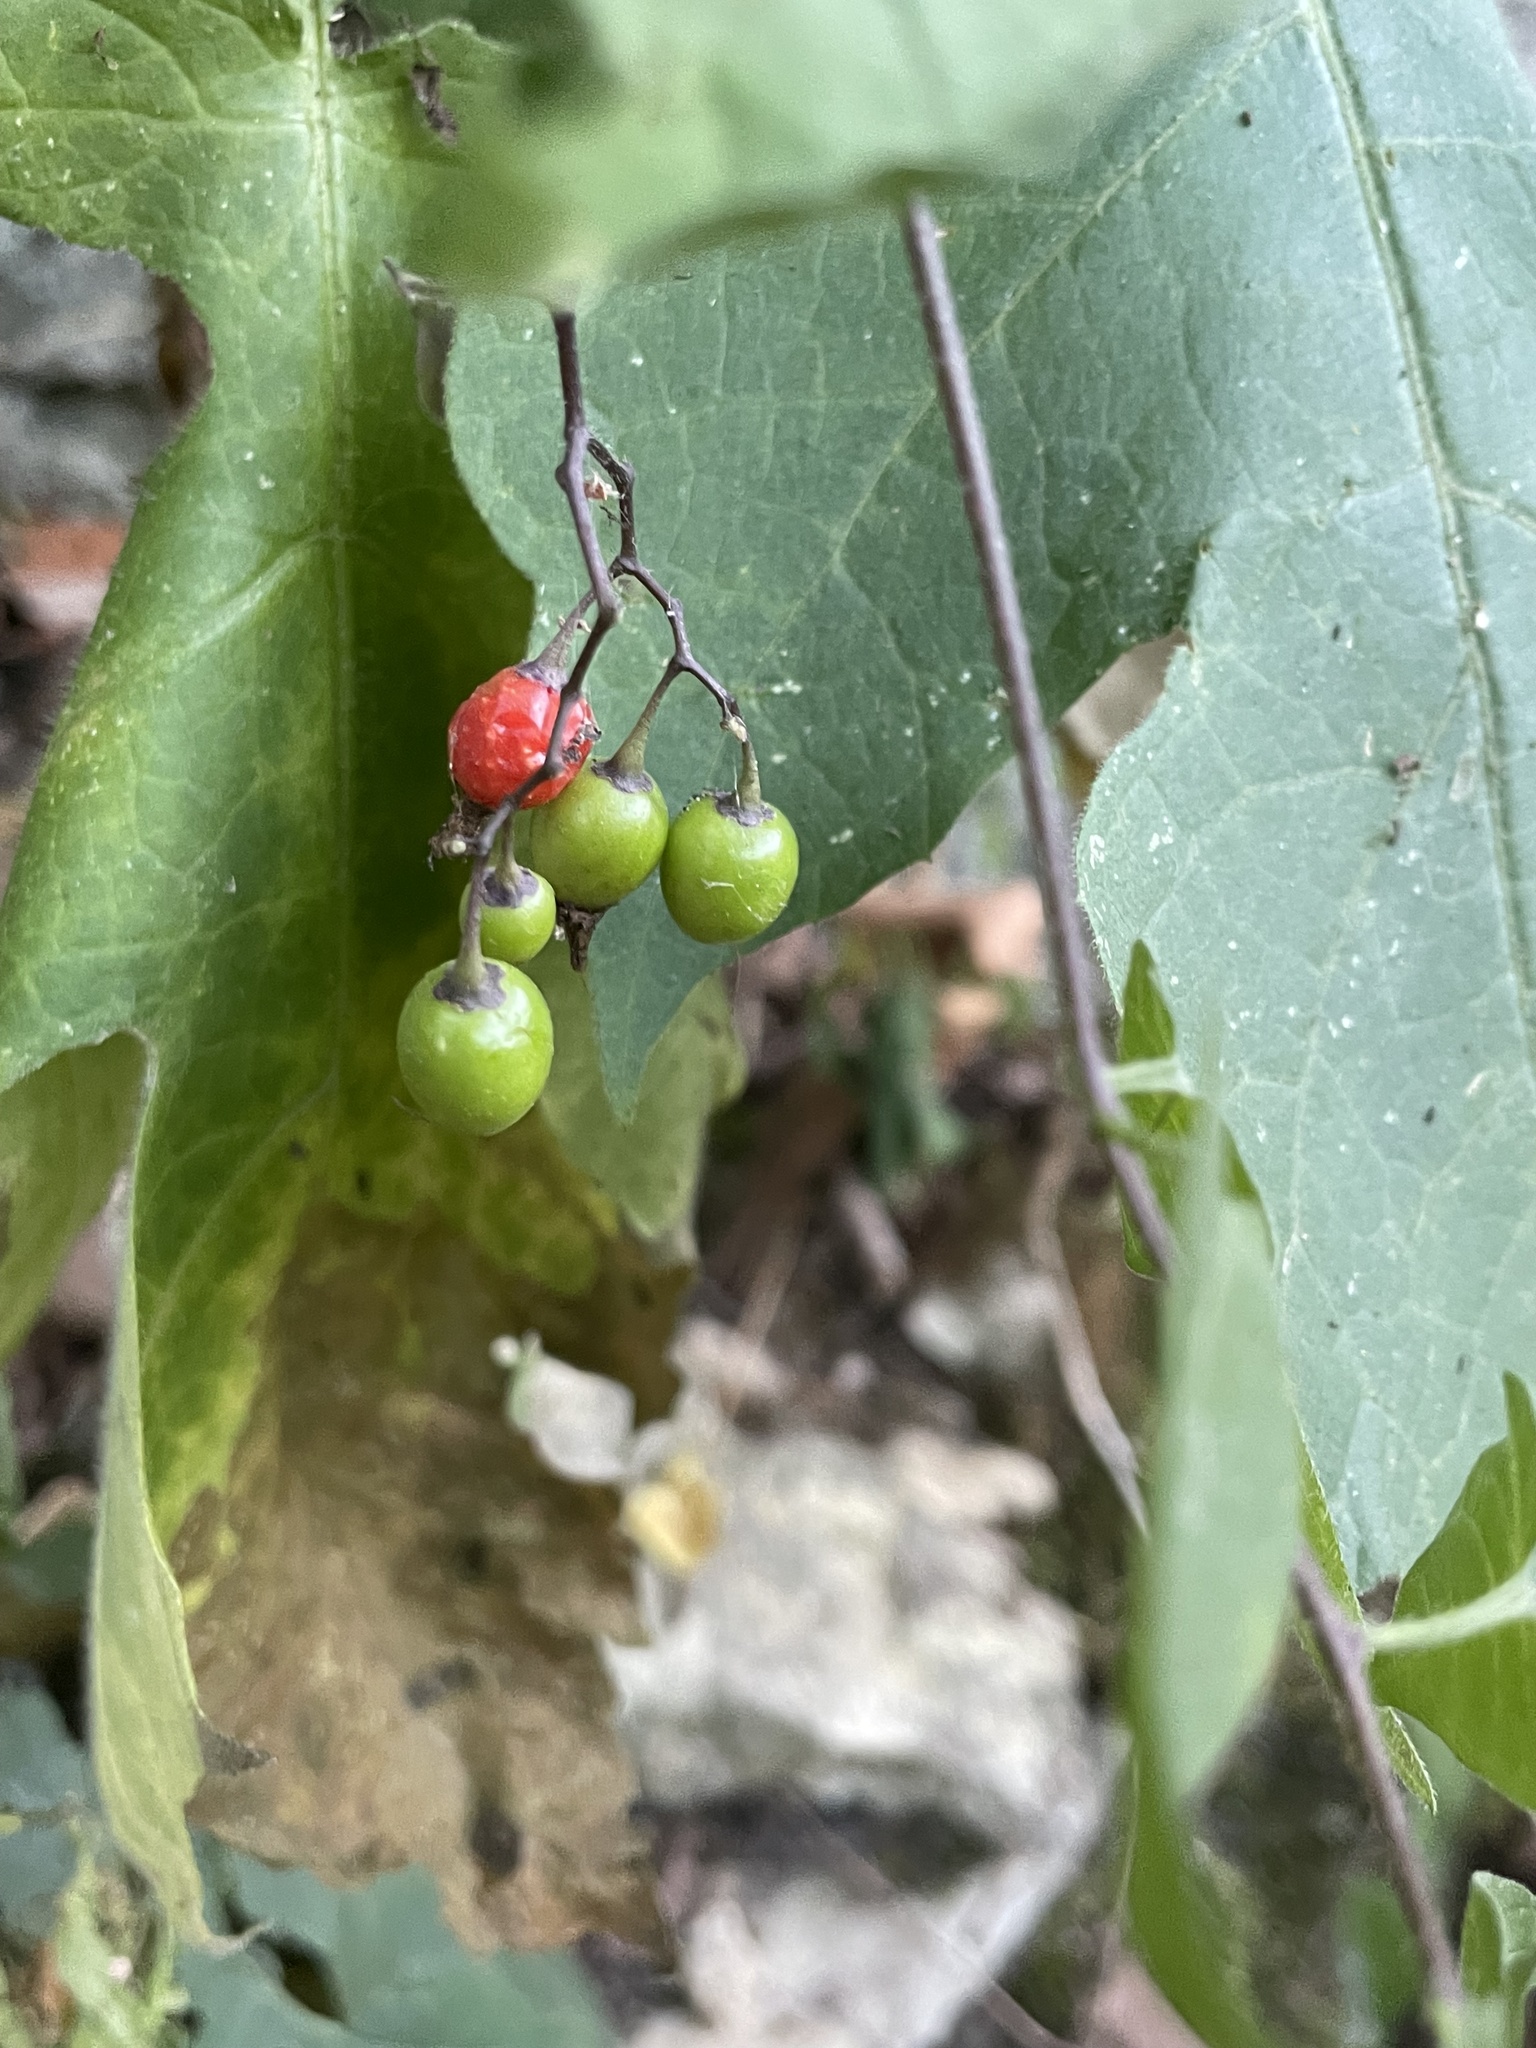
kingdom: Plantae
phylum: Tracheophyta
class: Magnoliopsida
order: Solanales
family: Solanaceae
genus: Solanum
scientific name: Solanum dulcamara
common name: Climbing nightshade
